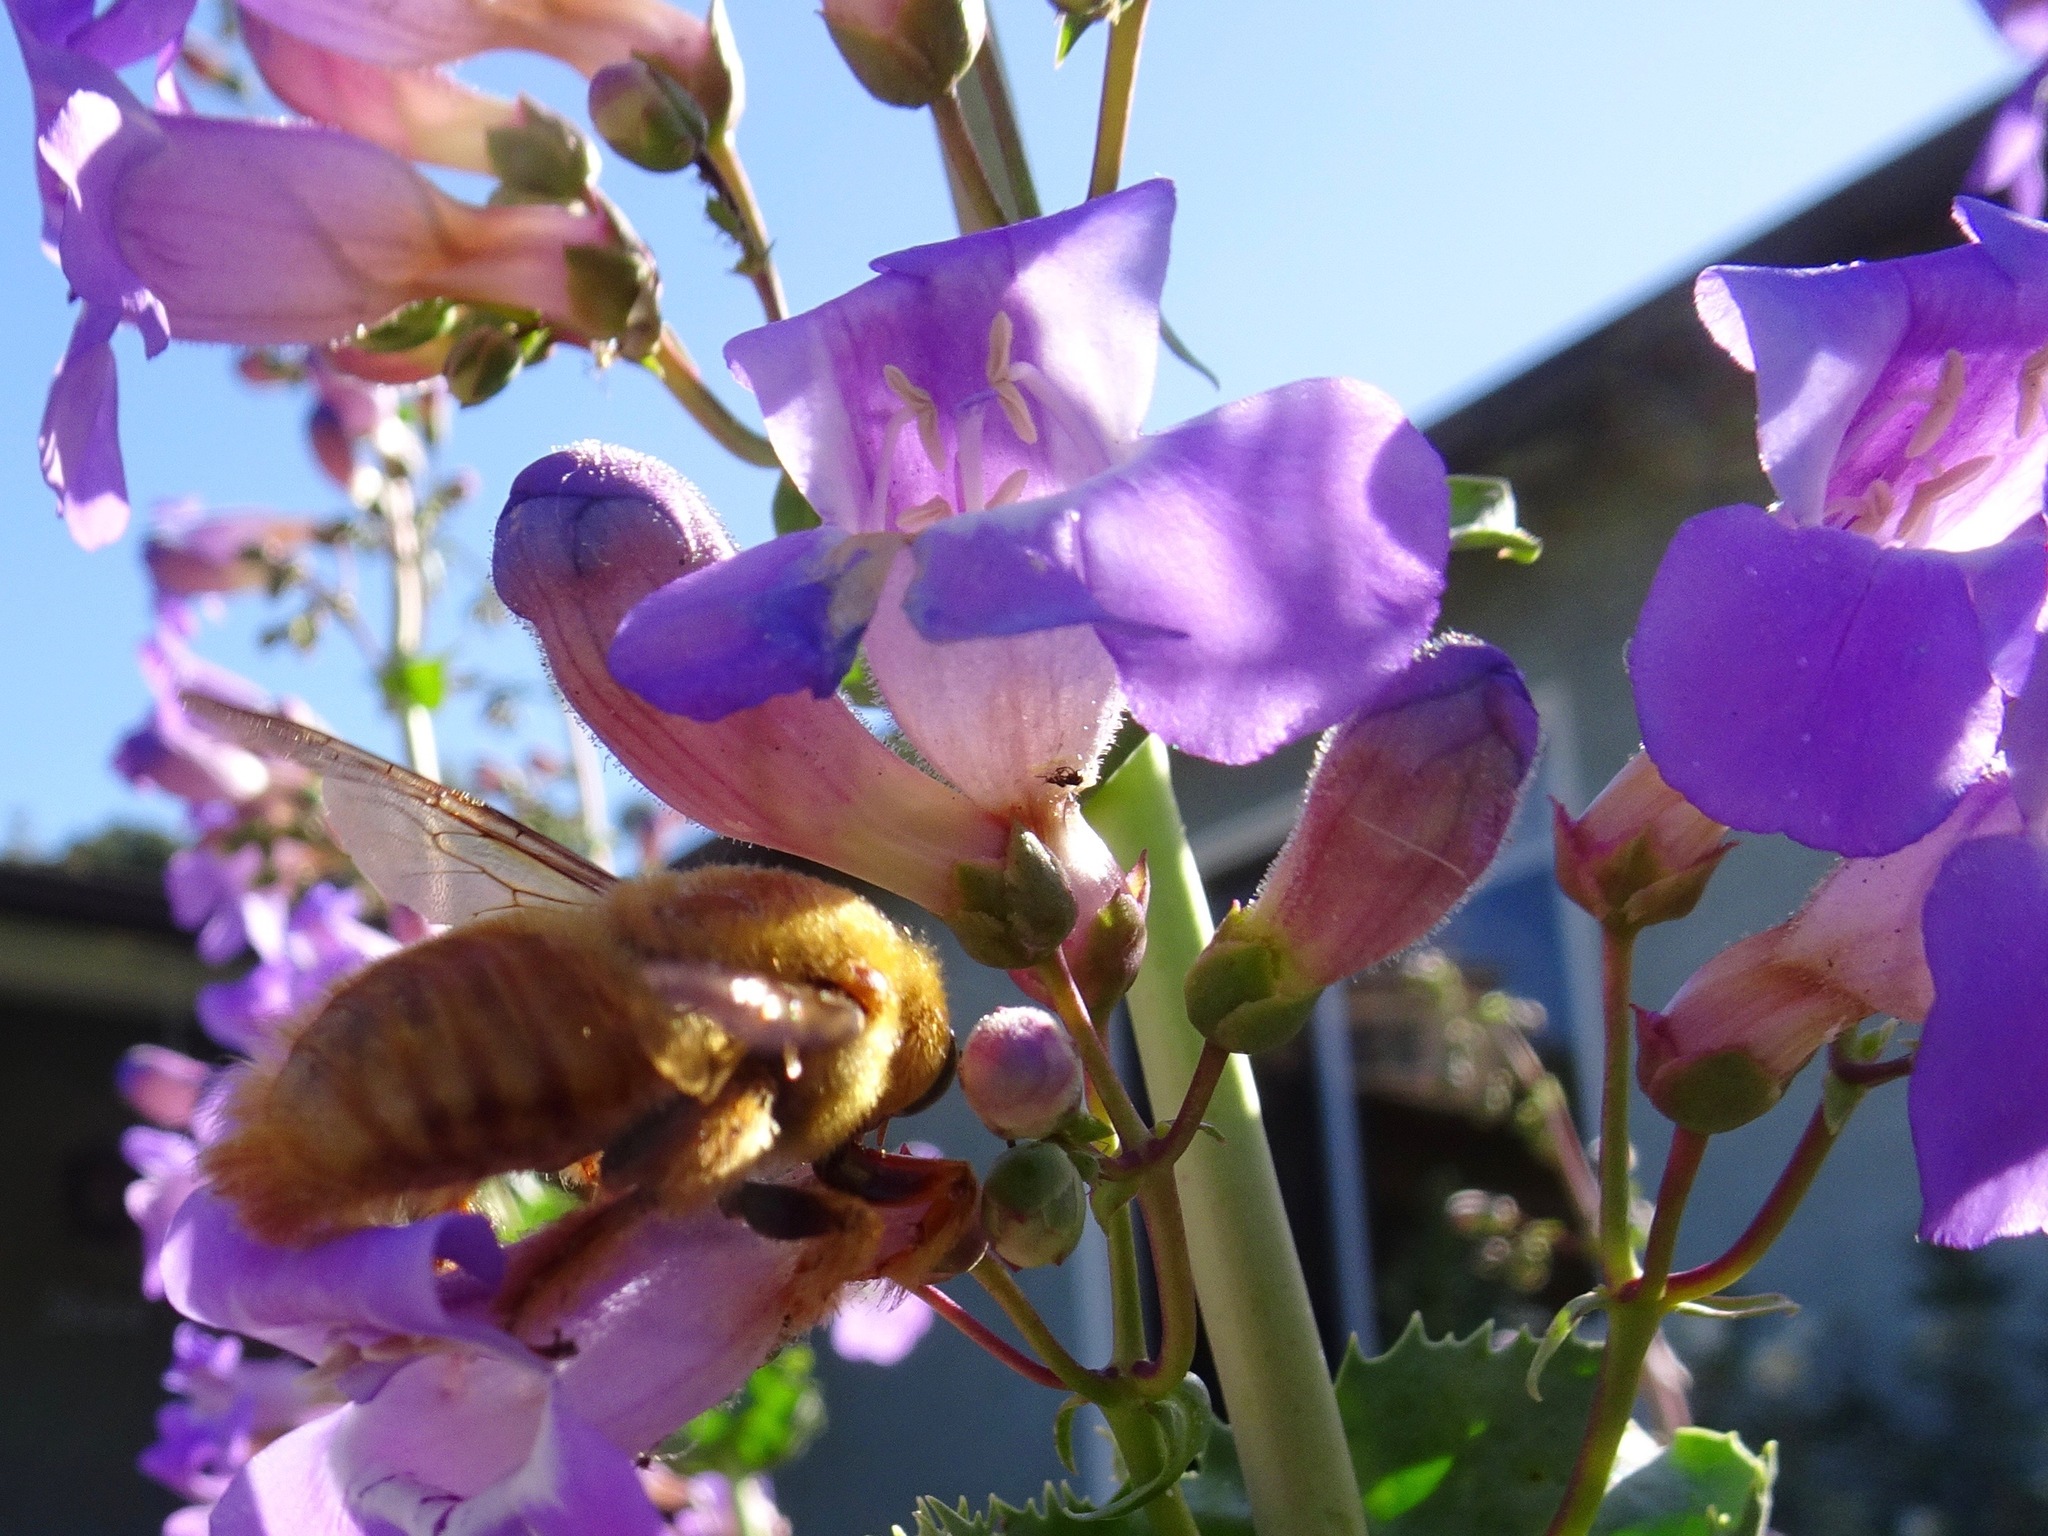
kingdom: Animalia
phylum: Arthropoda
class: Insecta
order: Hymenoptera
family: Apidae
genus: Xylocopa
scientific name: Xylocopa sonorina
